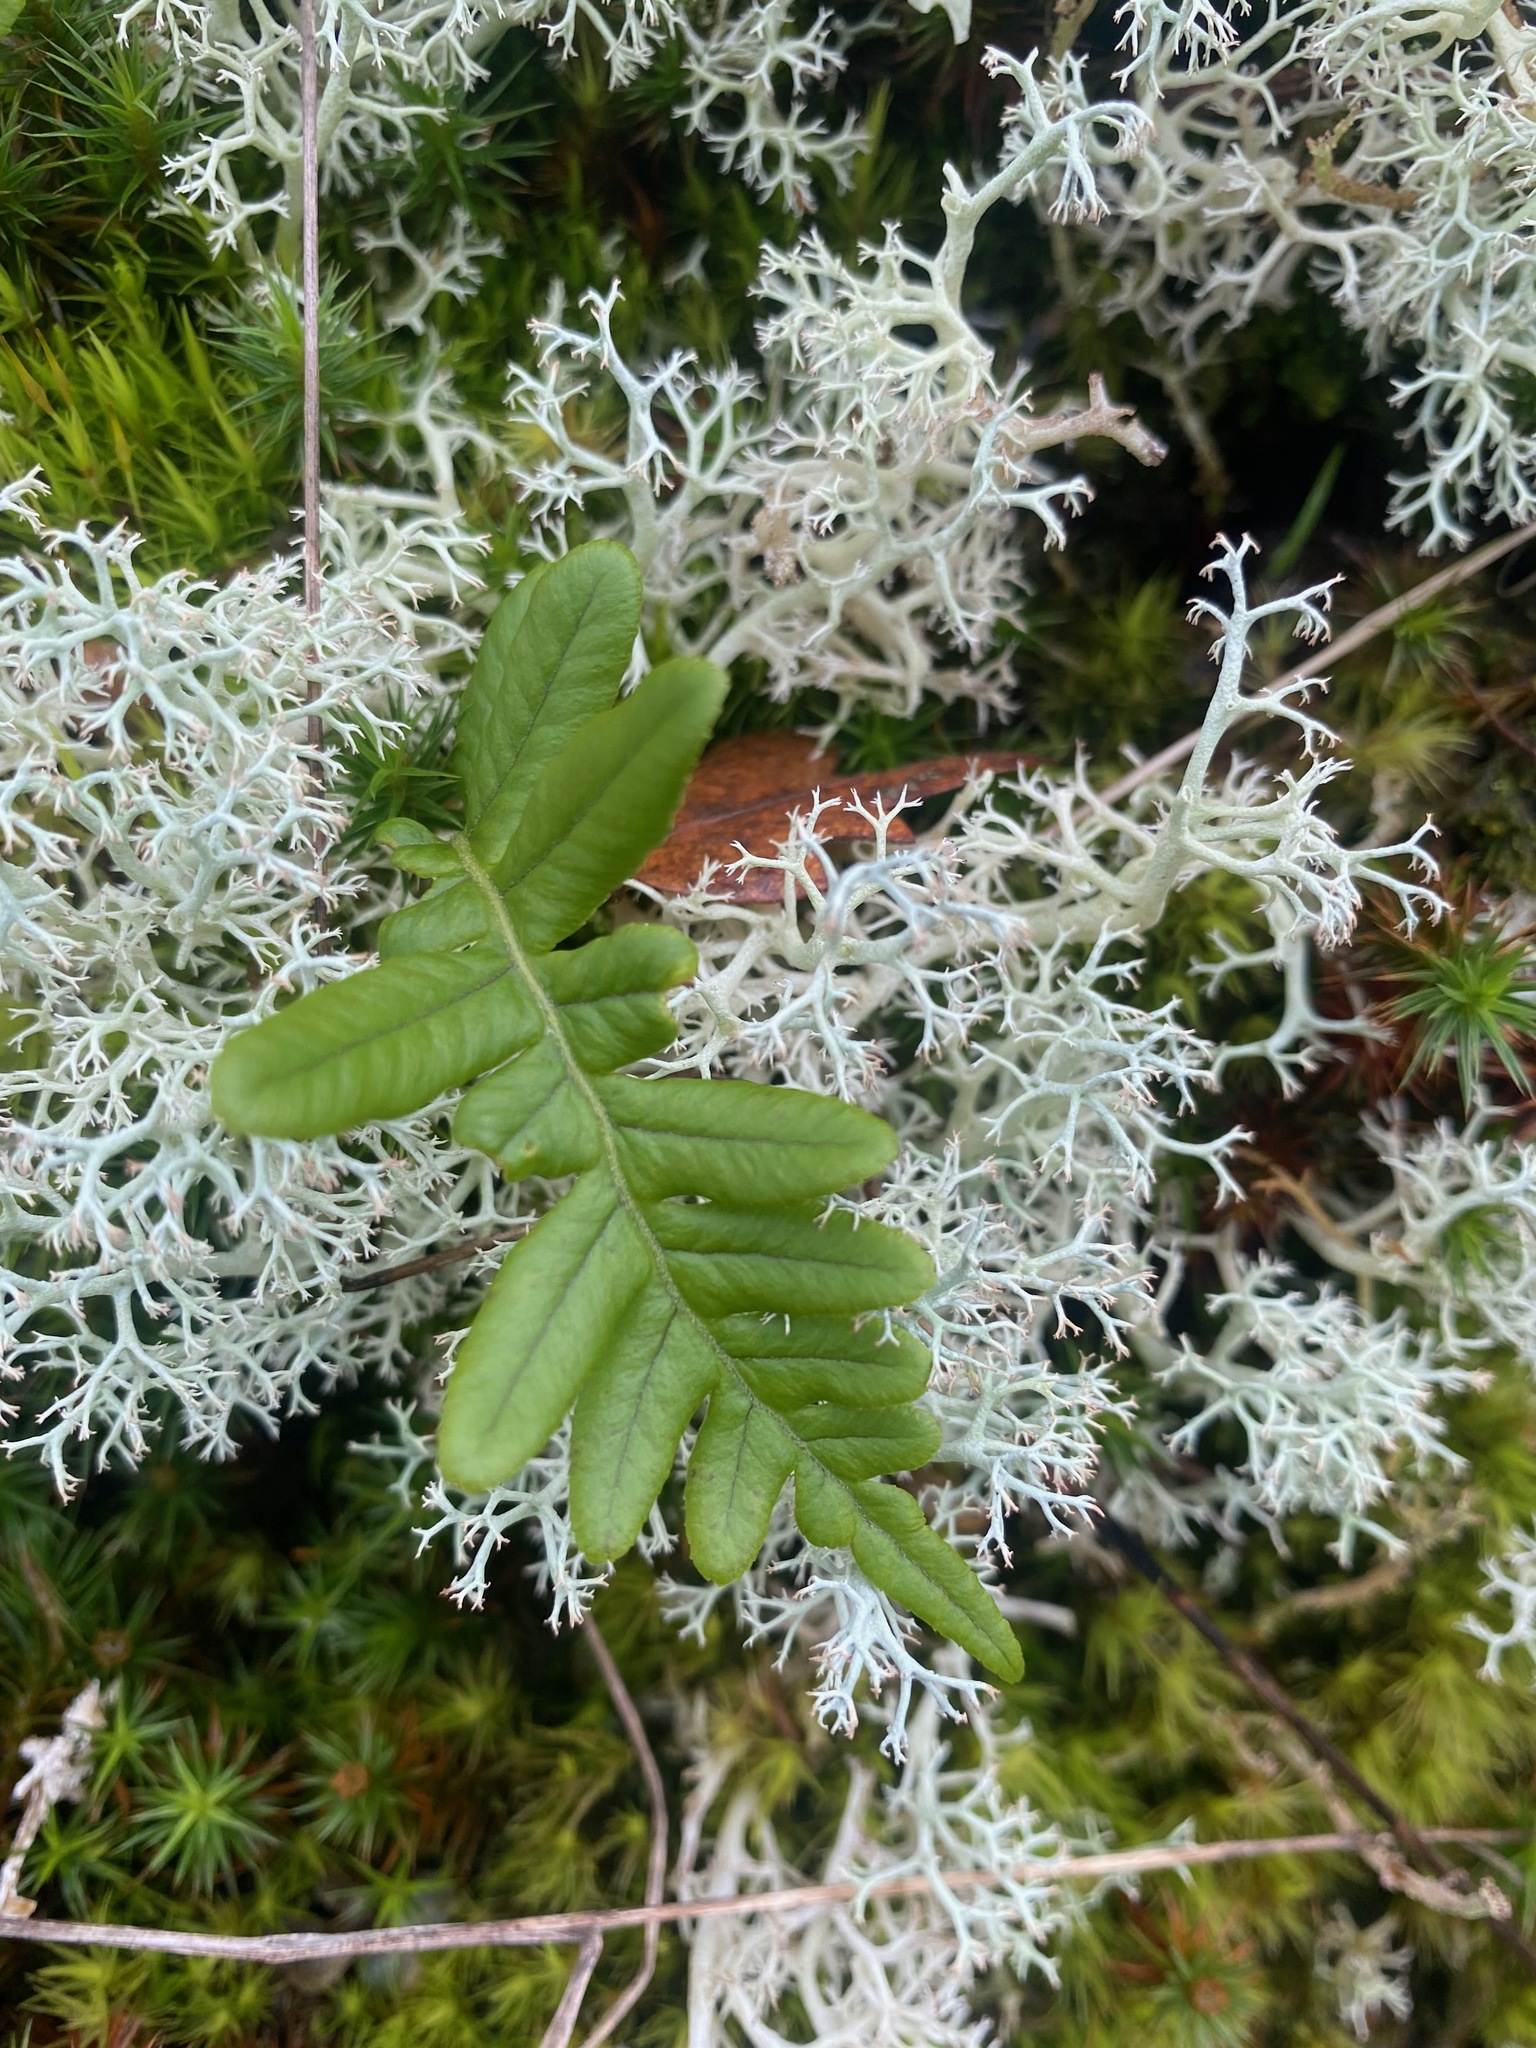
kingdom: Plantae
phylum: Tracheophyta
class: Polypodiopsida
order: Polypodiales
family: Polypodiaceae
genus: Polypodium
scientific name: Polypodium glycyrrhiza
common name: Licorice fern
